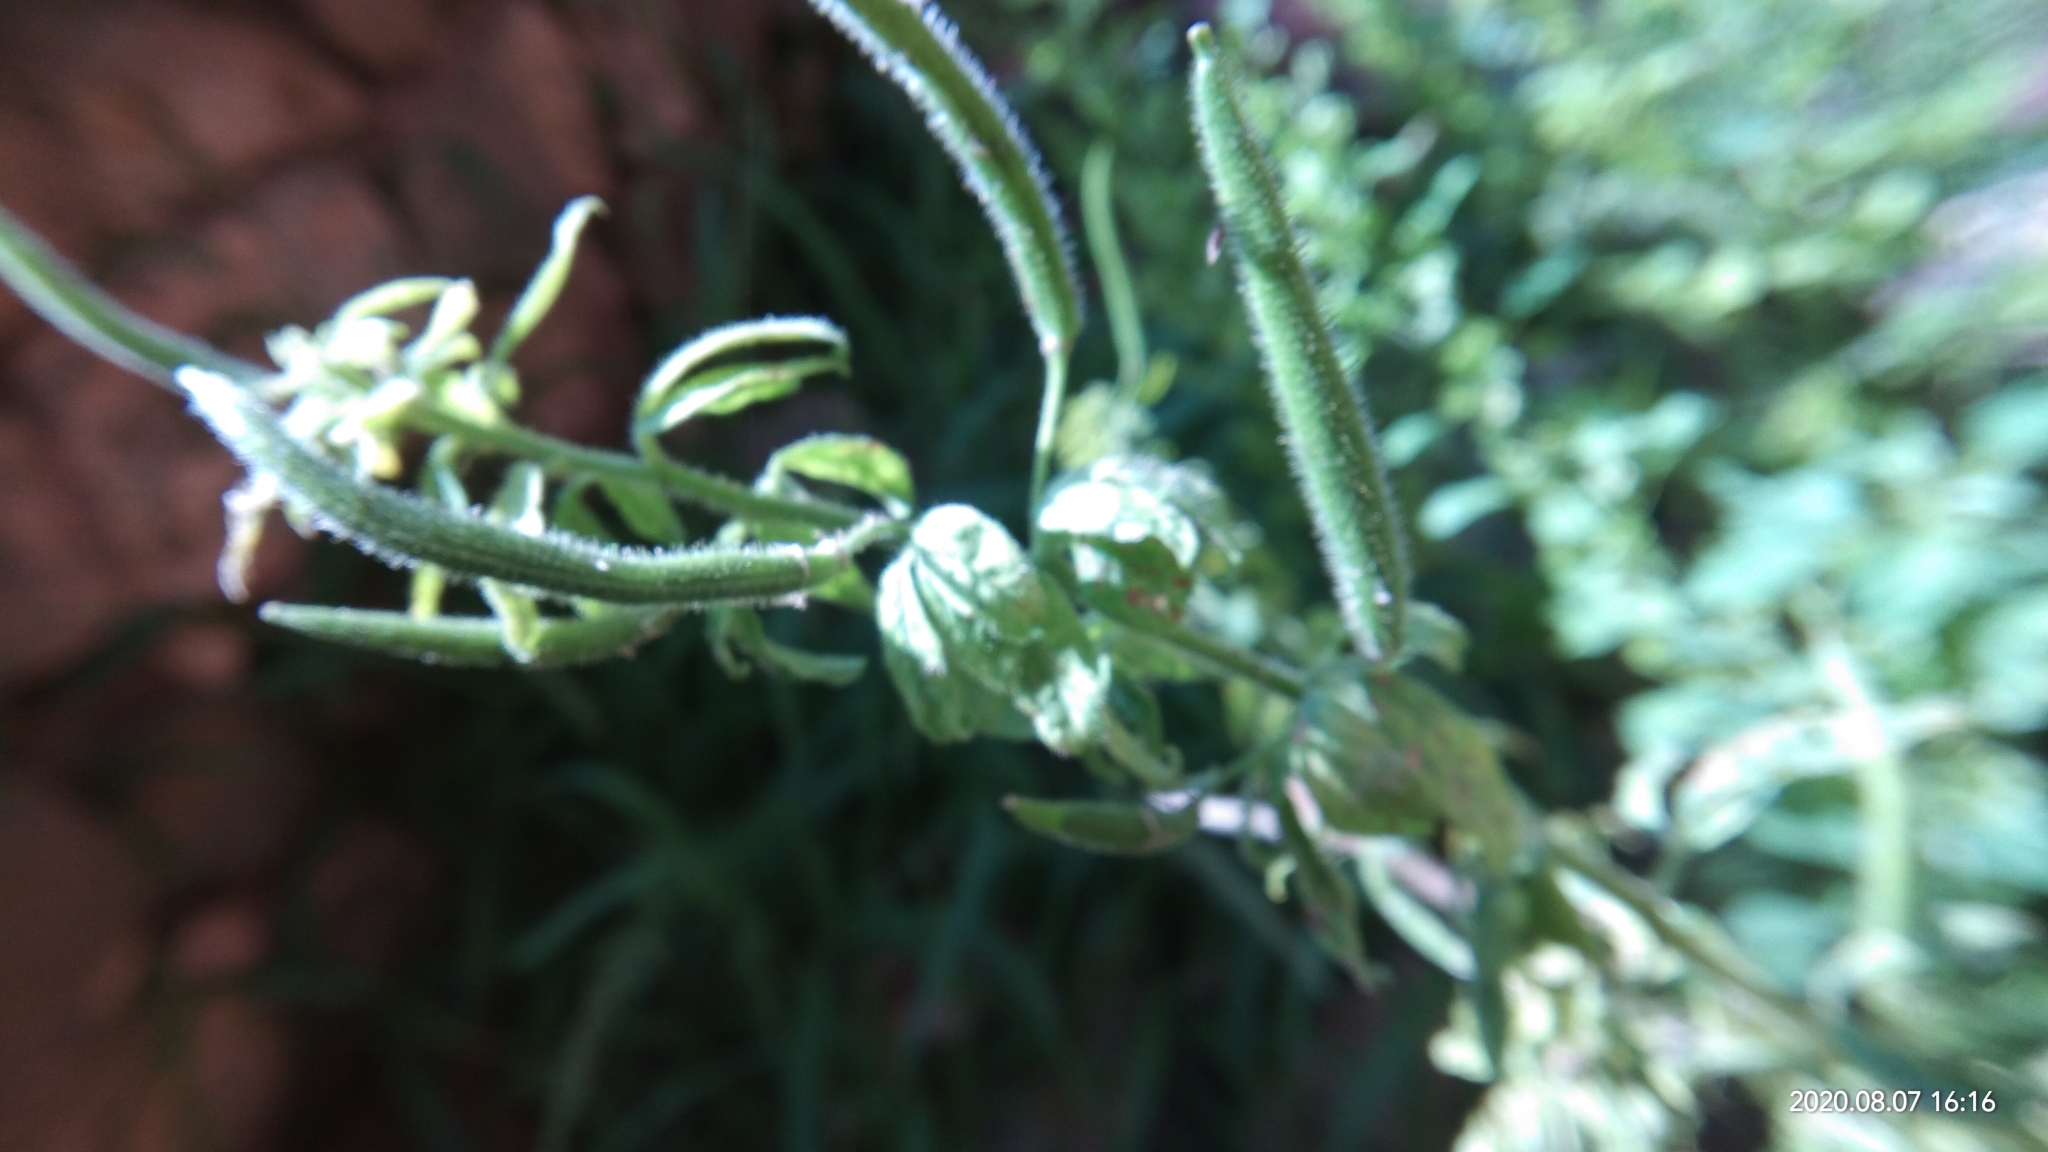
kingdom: Plantae
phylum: Tracheophyta
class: Magnoliopsida
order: Brassicales
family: Cleomaceae
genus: Arivela
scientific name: Arivela viscosa
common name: Asian spiderflower
